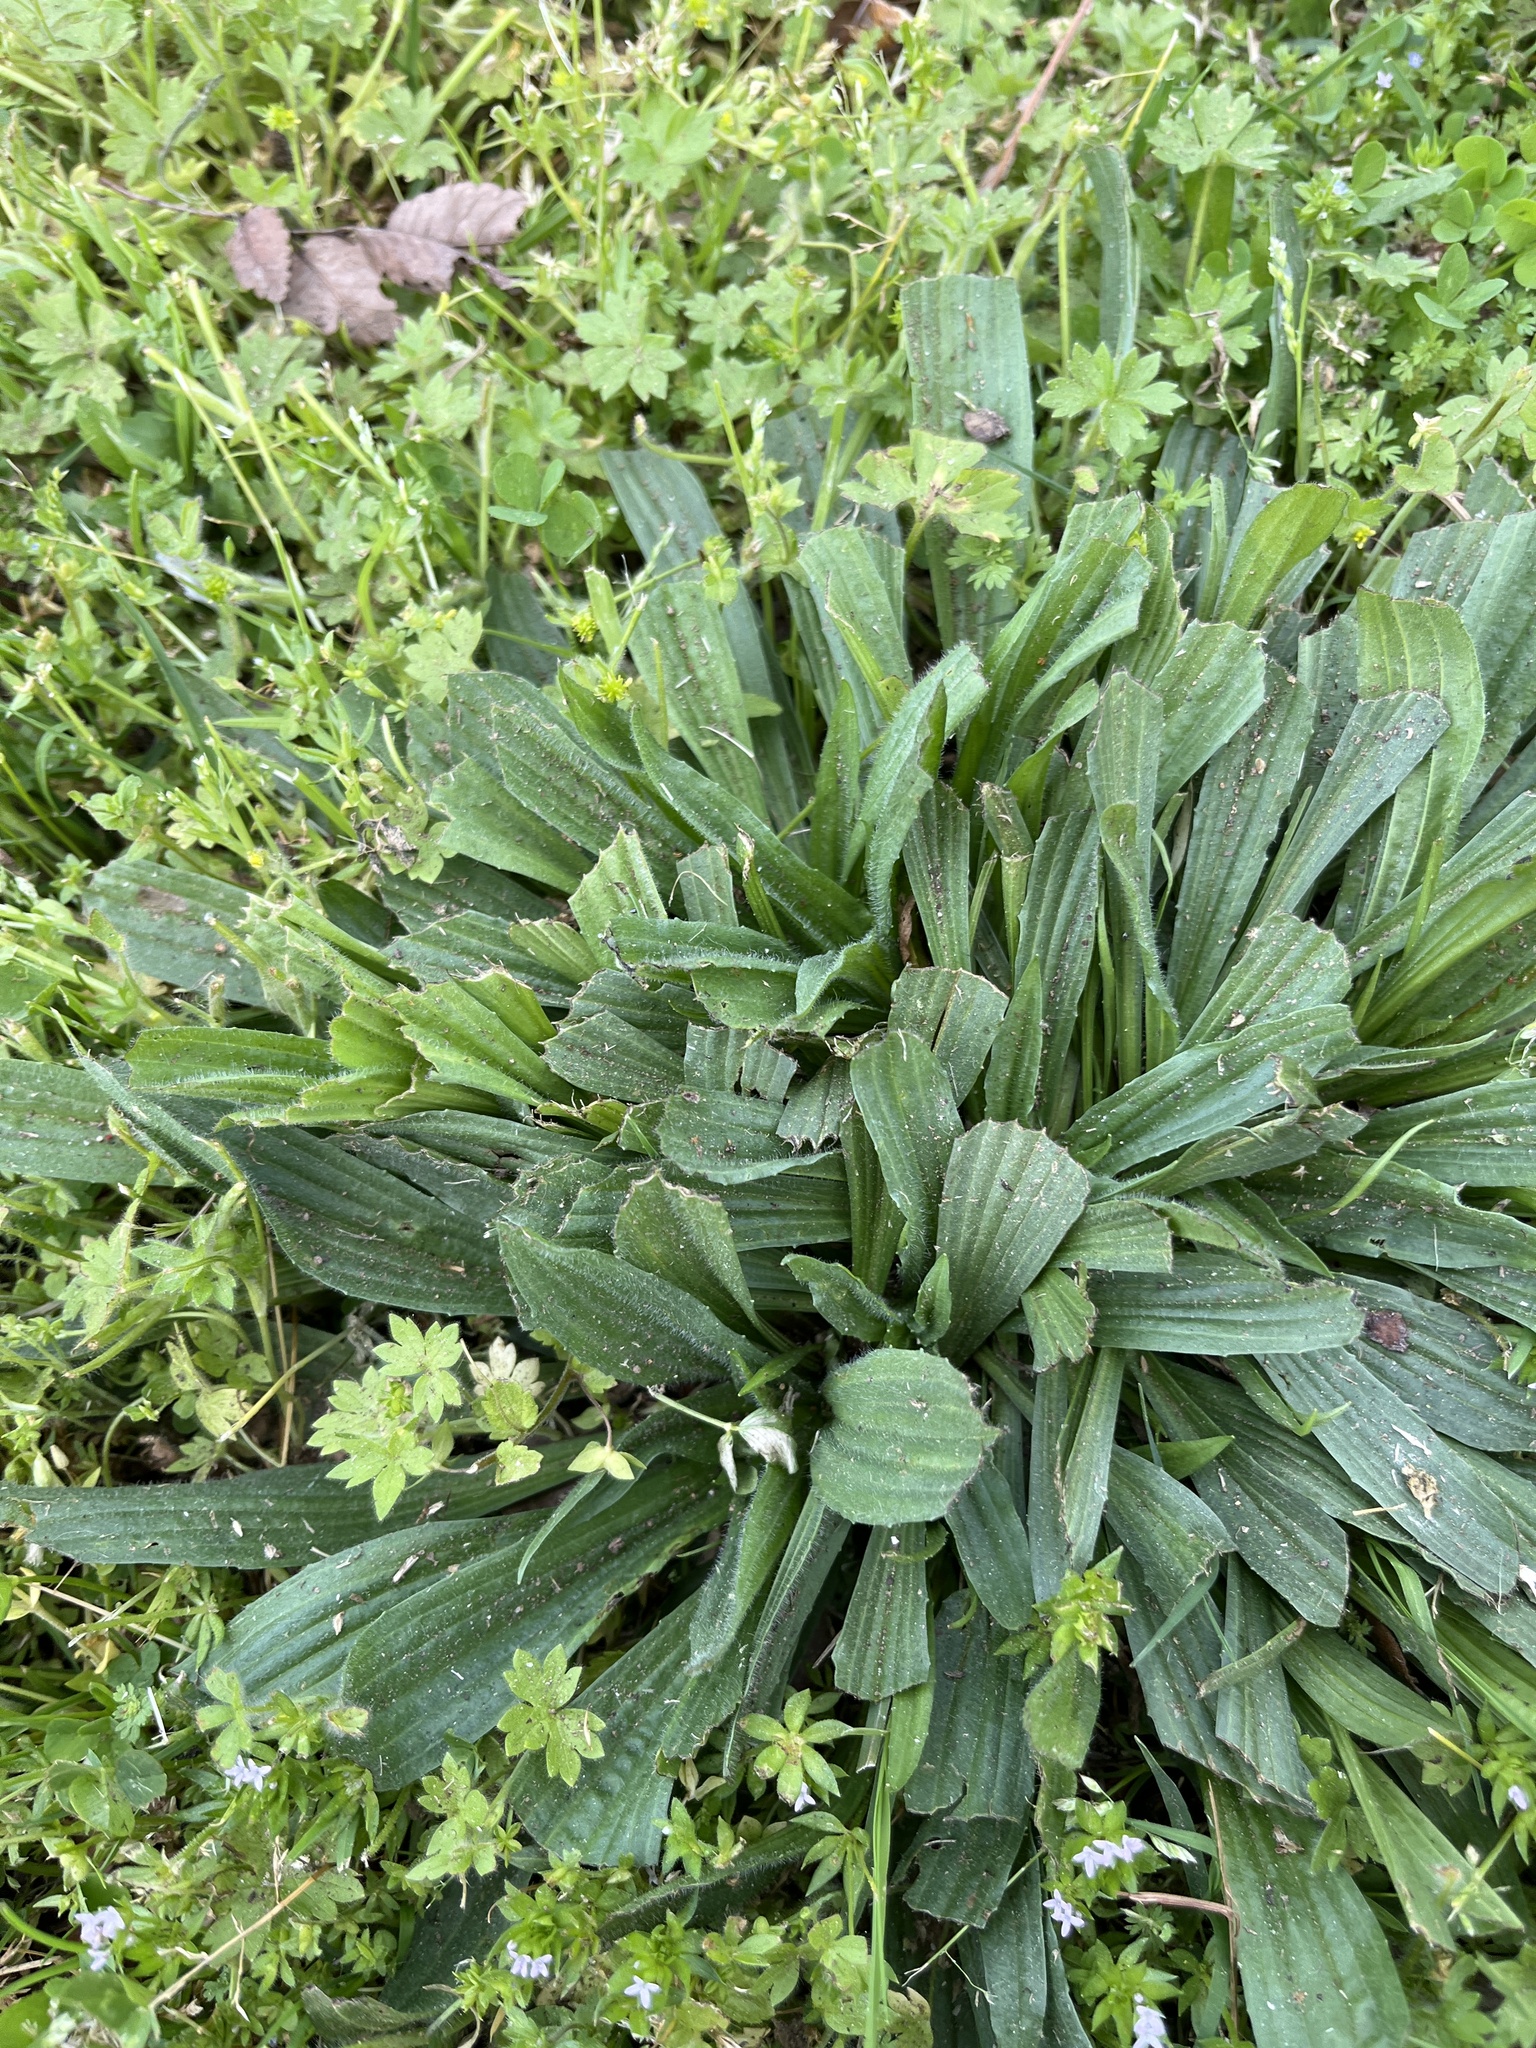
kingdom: Plantae
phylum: Tracheophyta
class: Magnoliopsida
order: Lamiales
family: Plantaginaceae
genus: Plantago
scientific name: Plantago lanceolata
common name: Ribwort plantain
